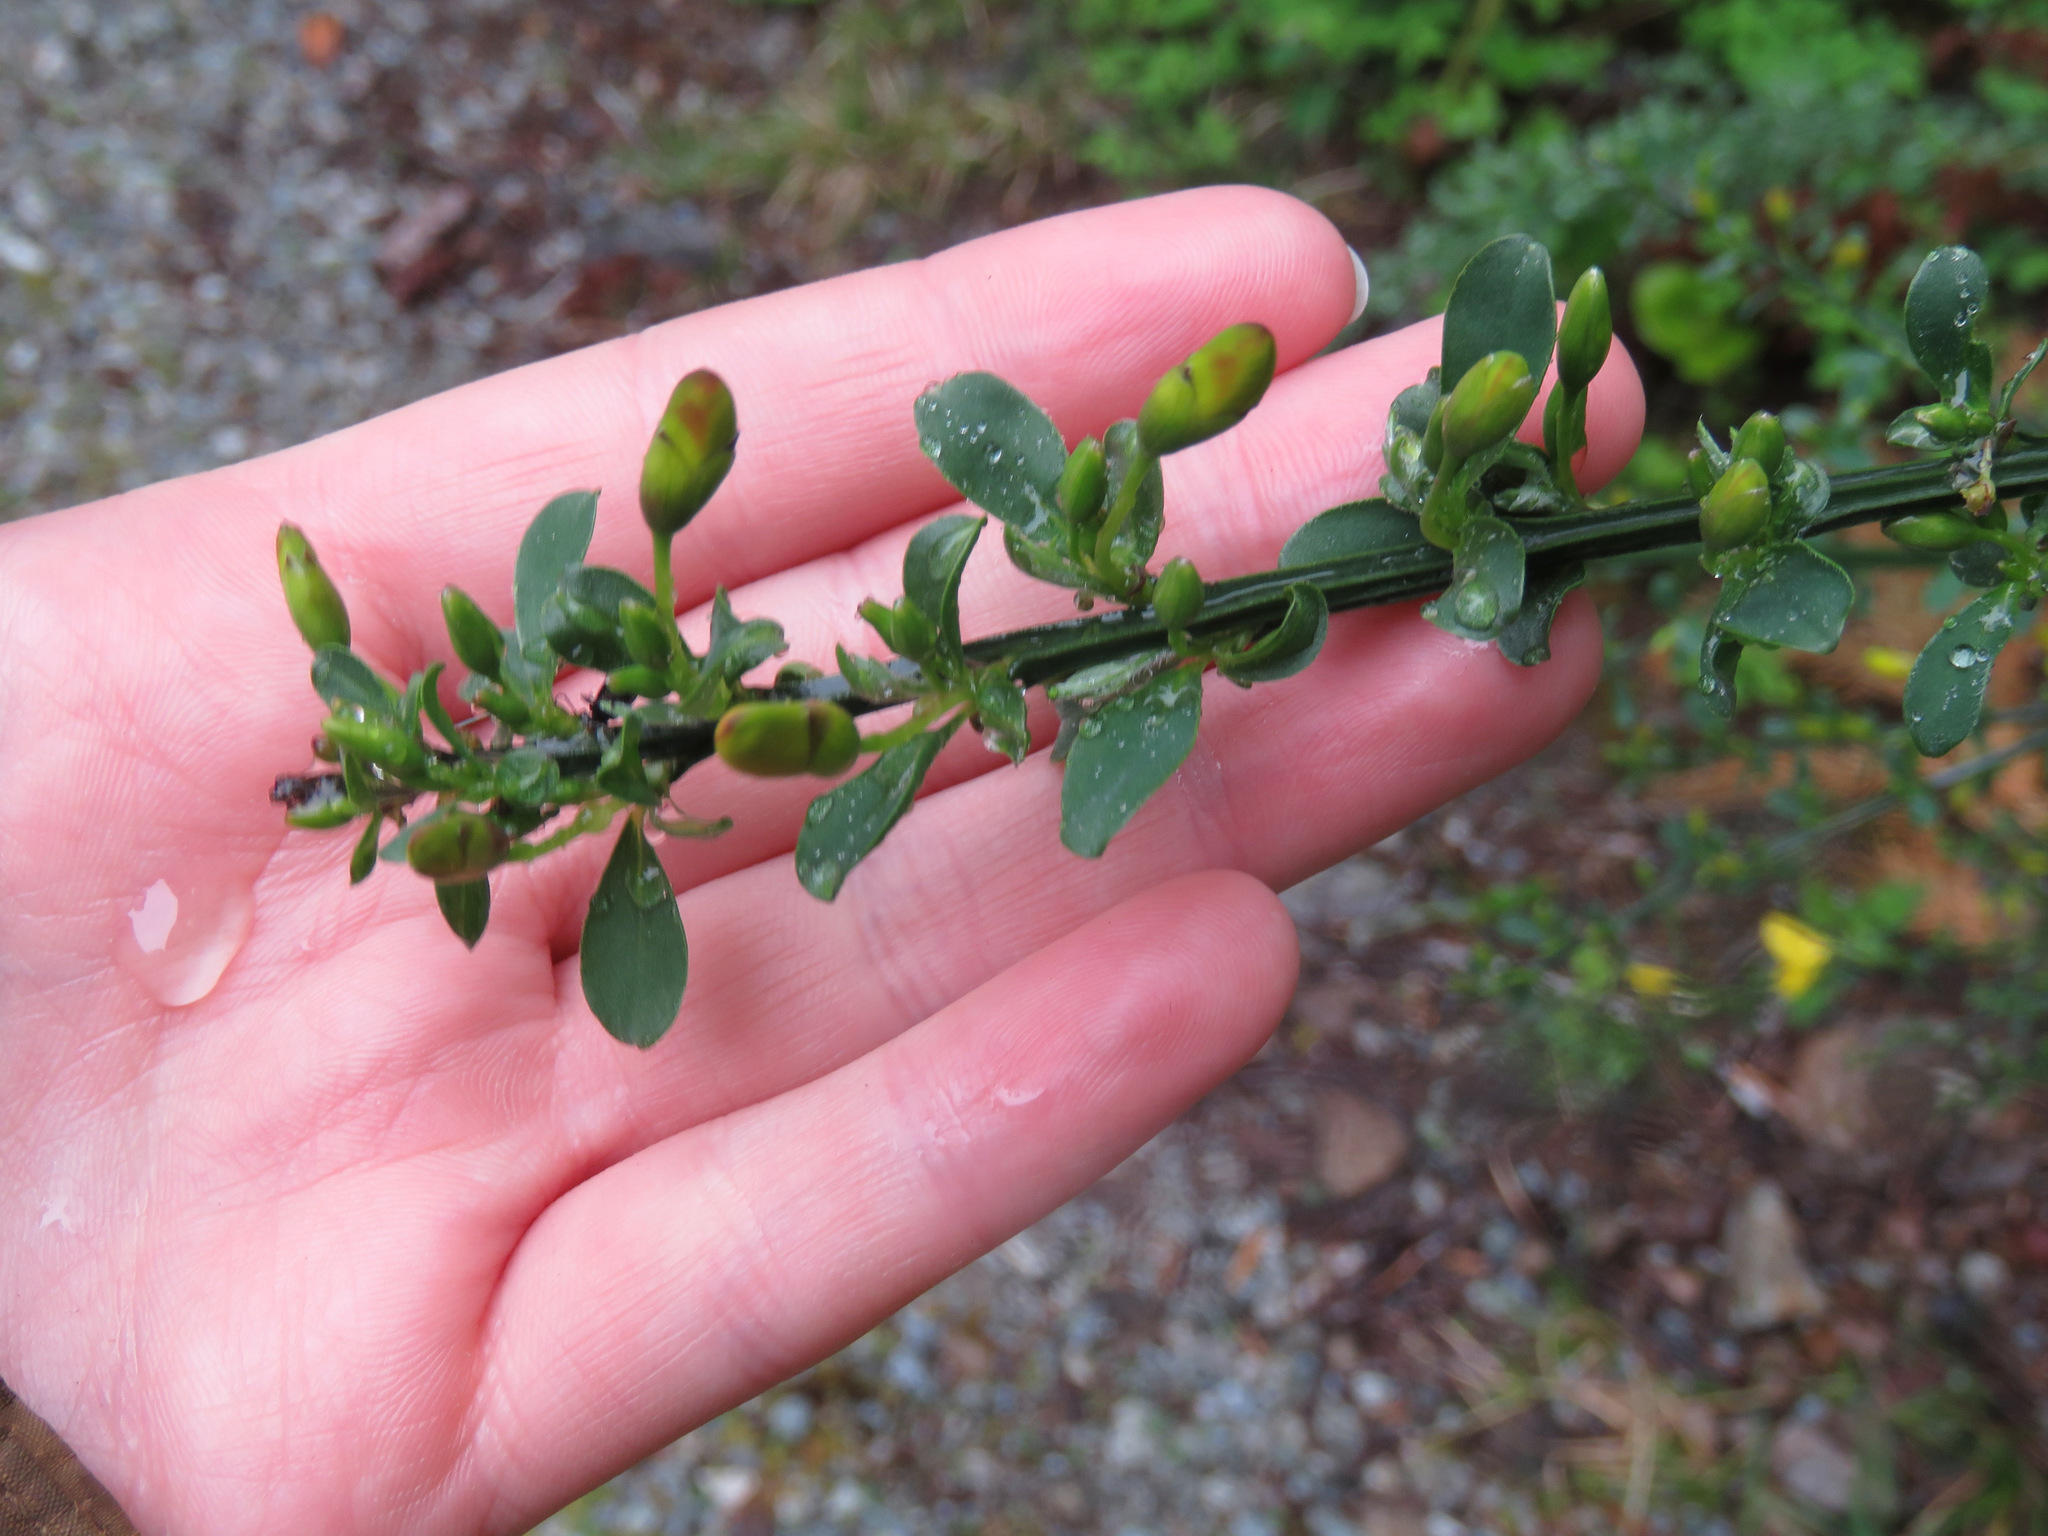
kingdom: Plantae
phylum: Tracheophyta
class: Magnoliopsida
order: Fabales
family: Fabaceae
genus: Cytisus
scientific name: Cytisus scoparius
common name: Scotch broom
